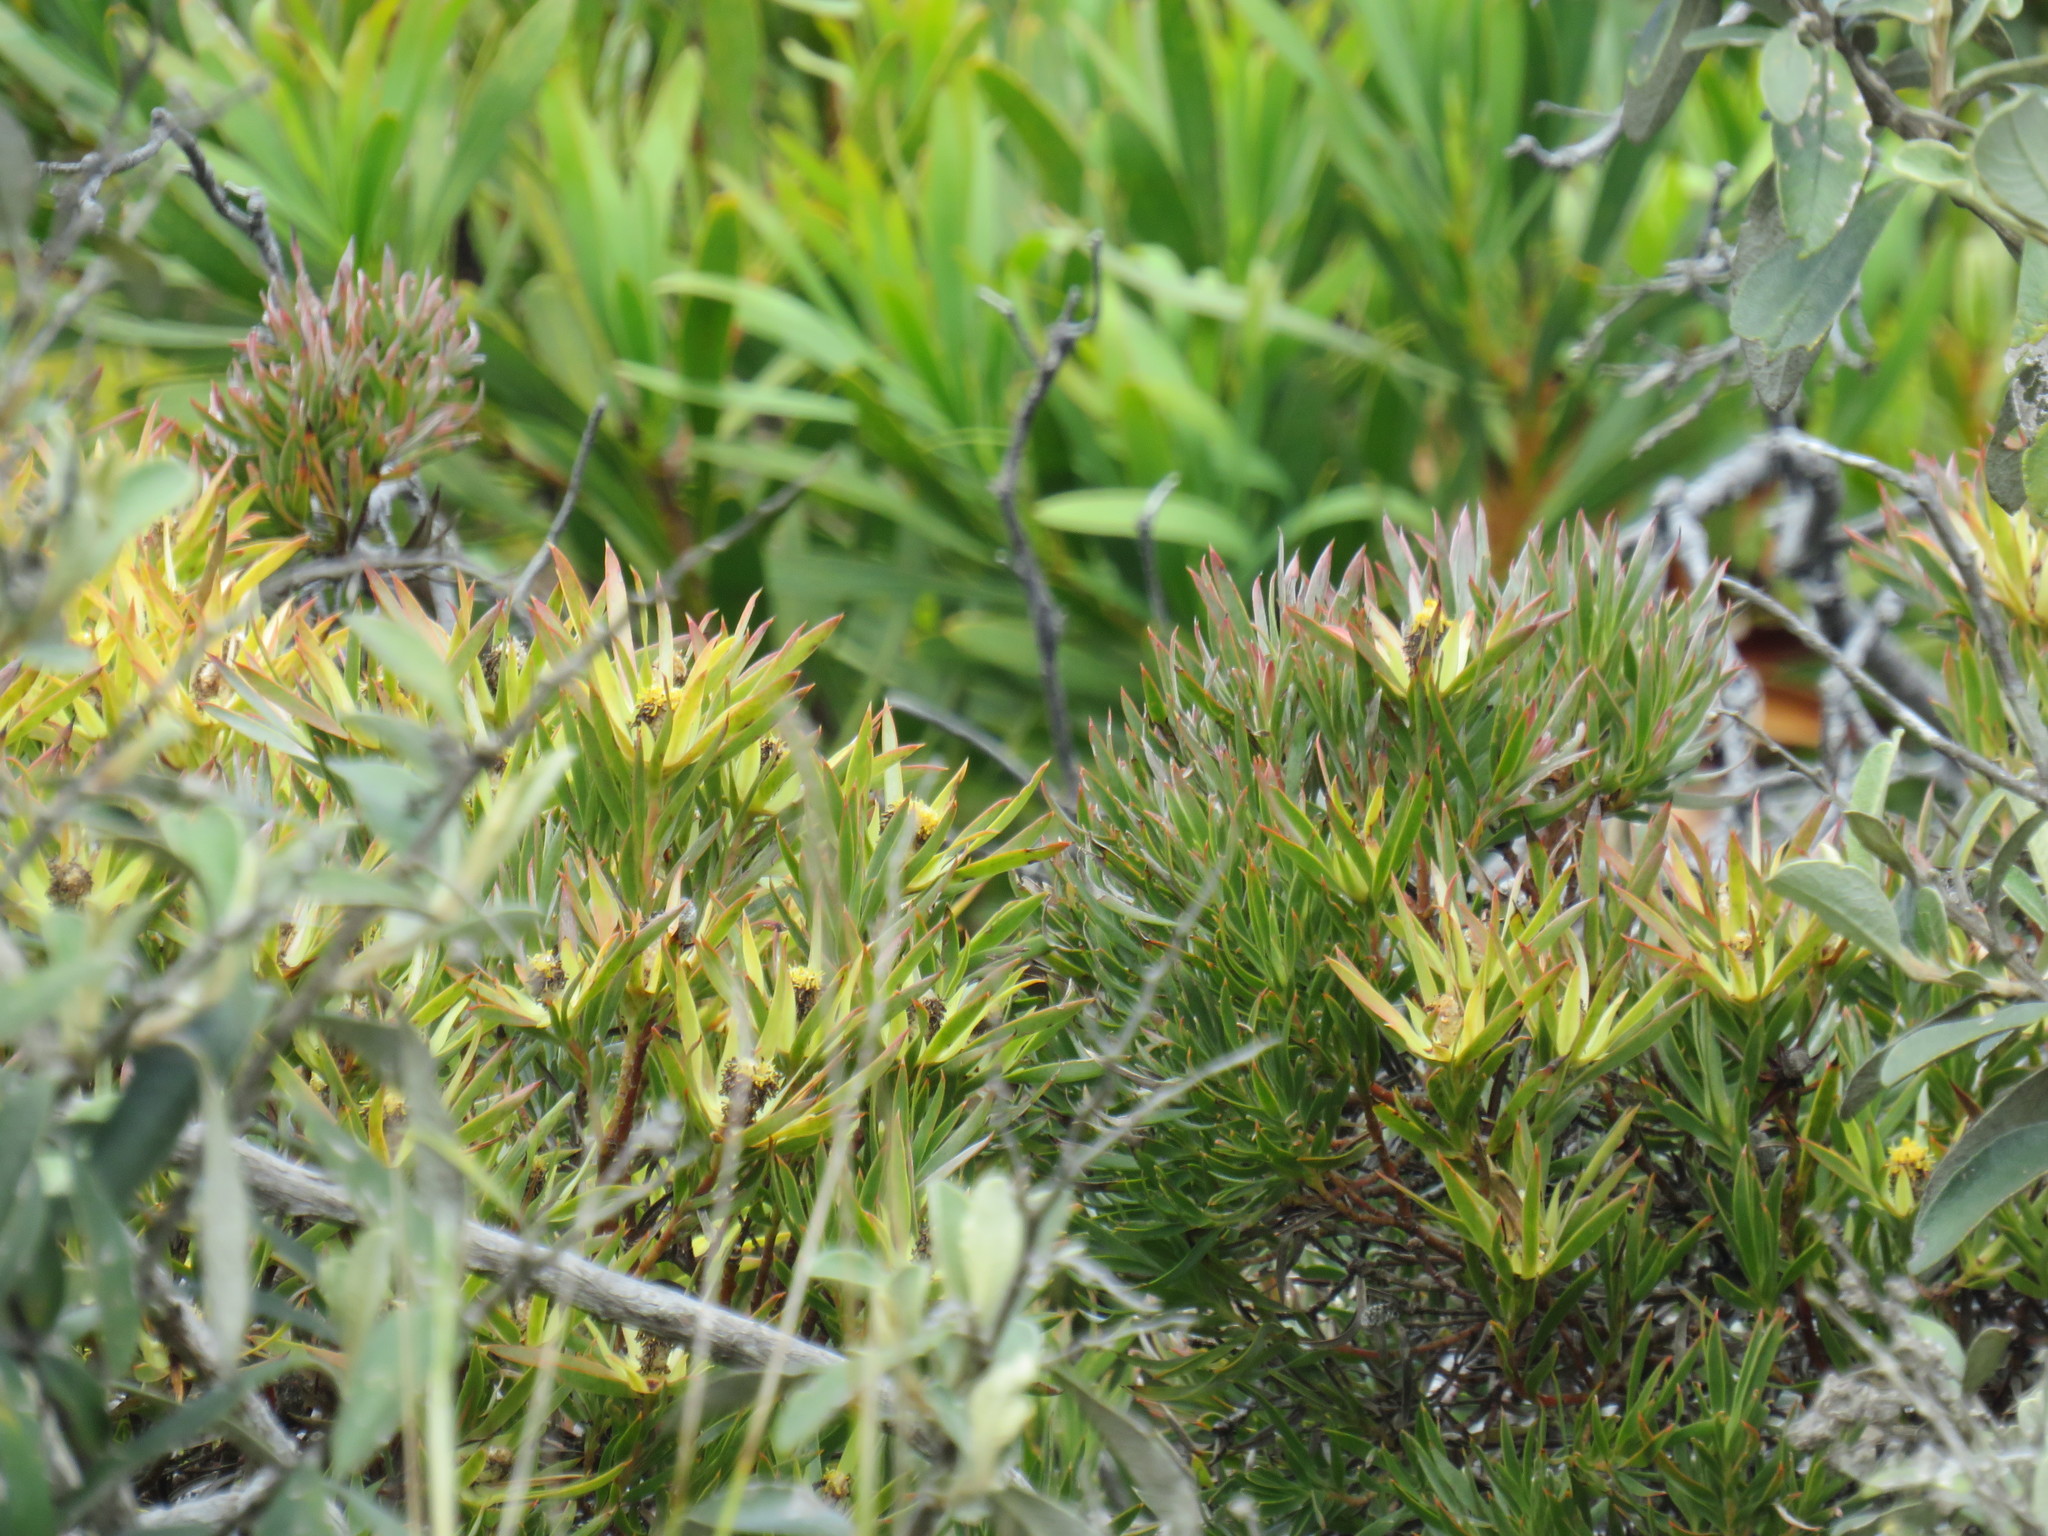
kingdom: Plantae
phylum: Tracheophyta
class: Magnoliopsida
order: Proteales
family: Proteaceae
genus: Leucadendron
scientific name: Leucadendron xanthoconus
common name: Sickle-leaf conebush
